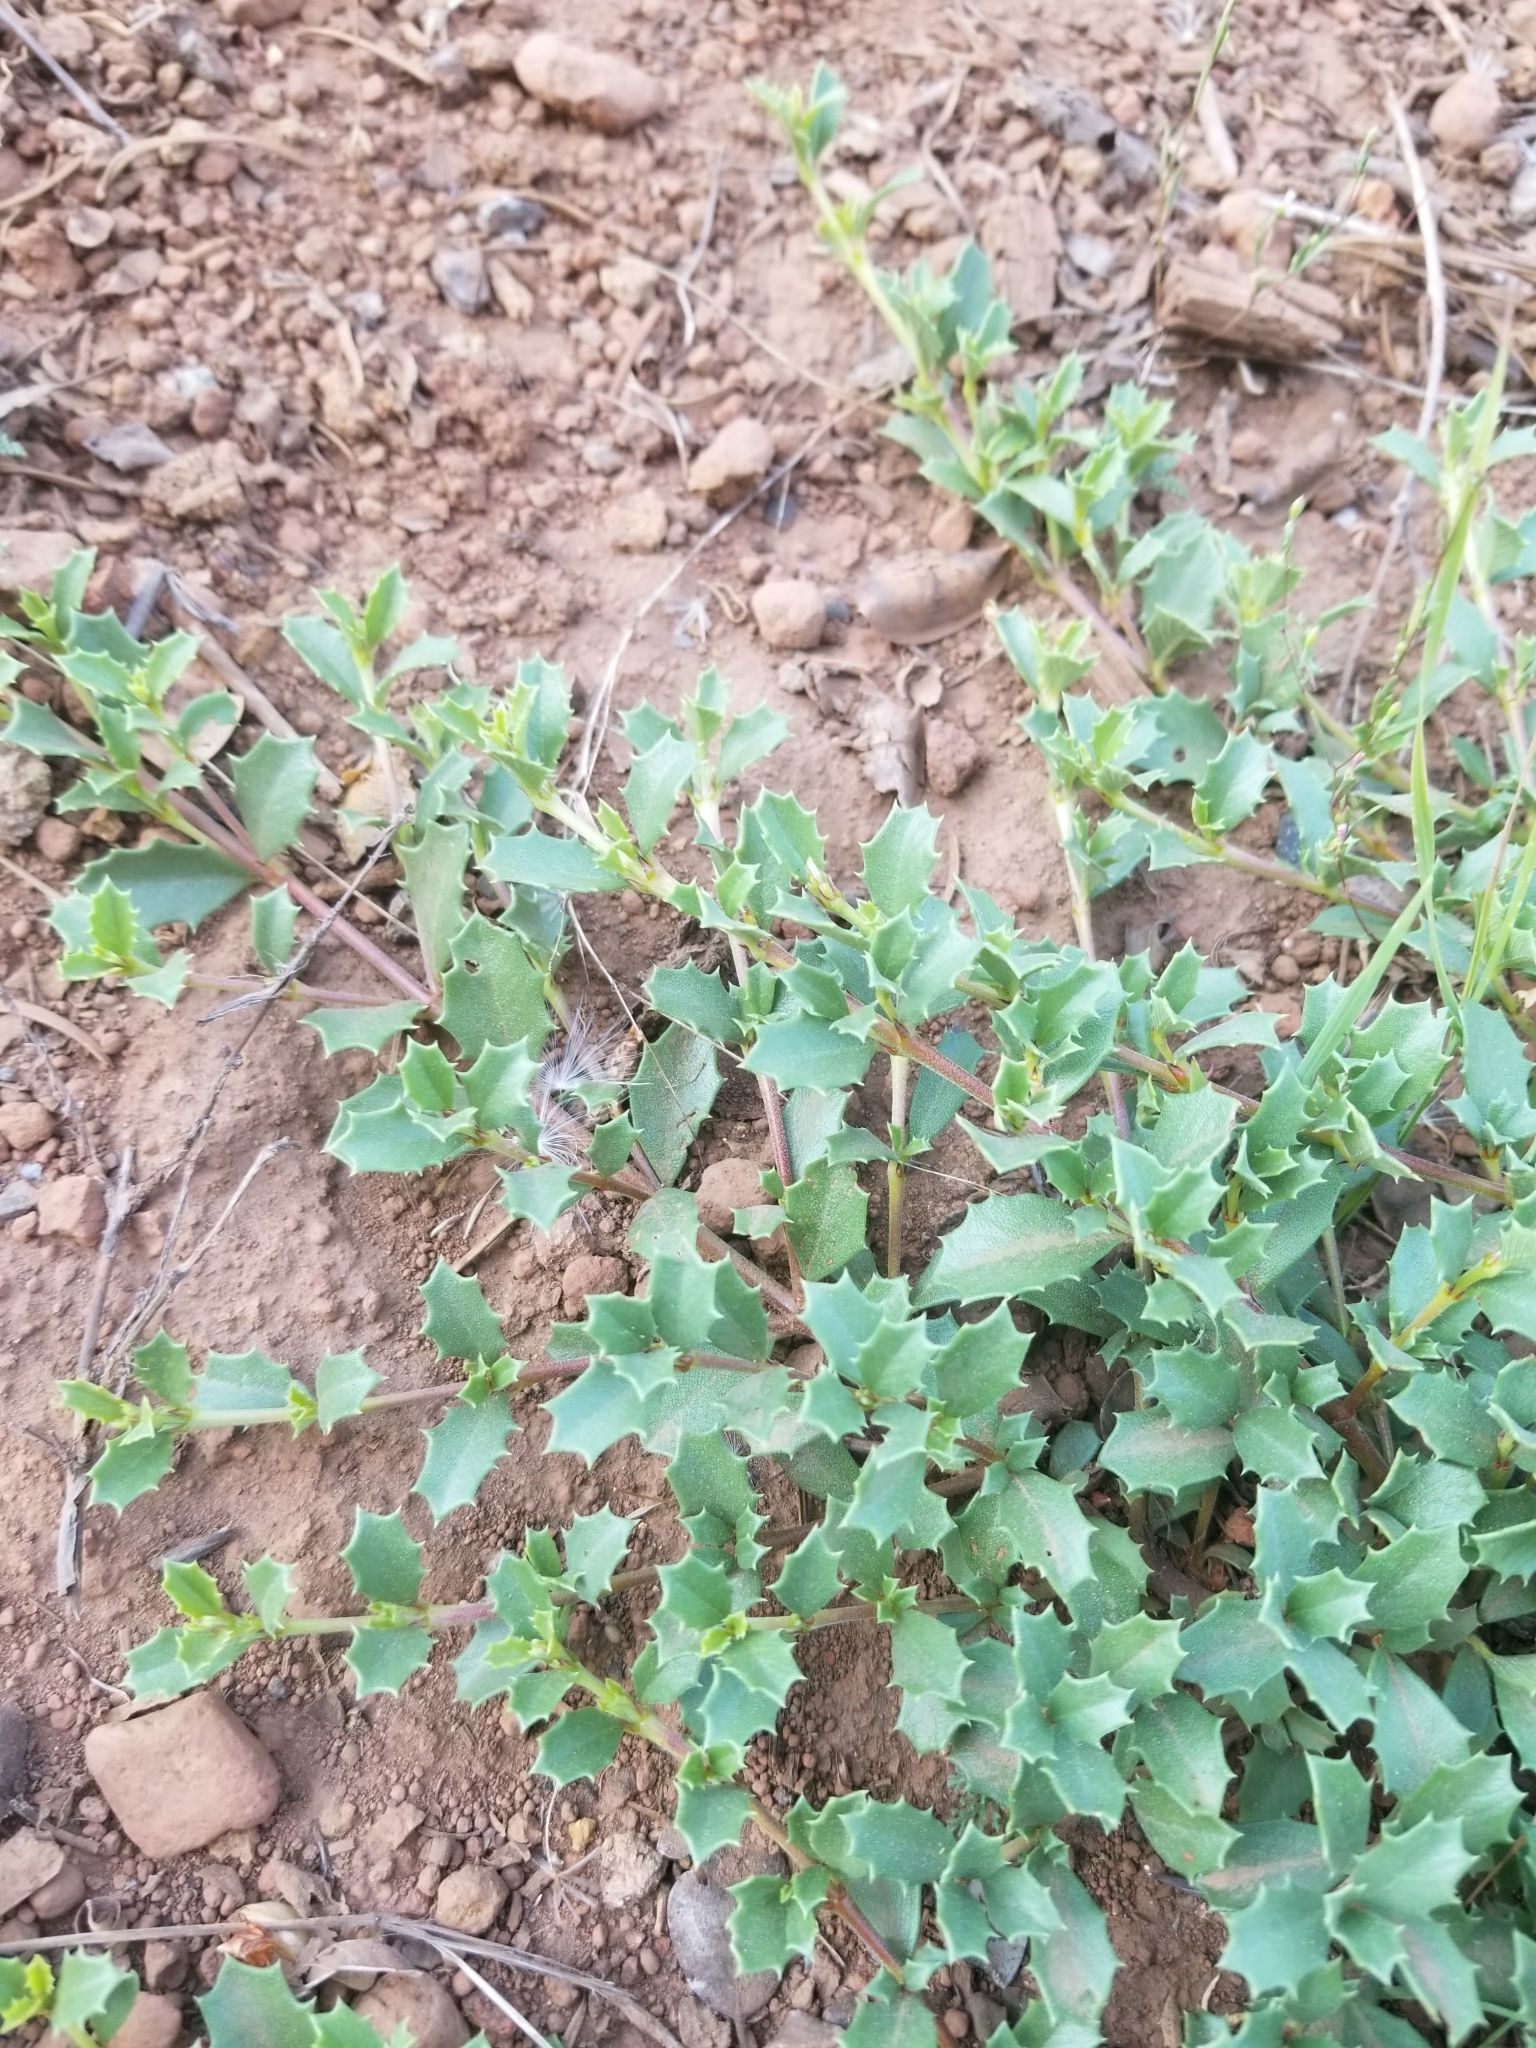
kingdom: Plantae
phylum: Tracheophyta
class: Magnoliopsida
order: Rosales
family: Rhamnaceae
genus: Ceanothus
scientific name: Ceanothus prostratus
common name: Mahala-mat
